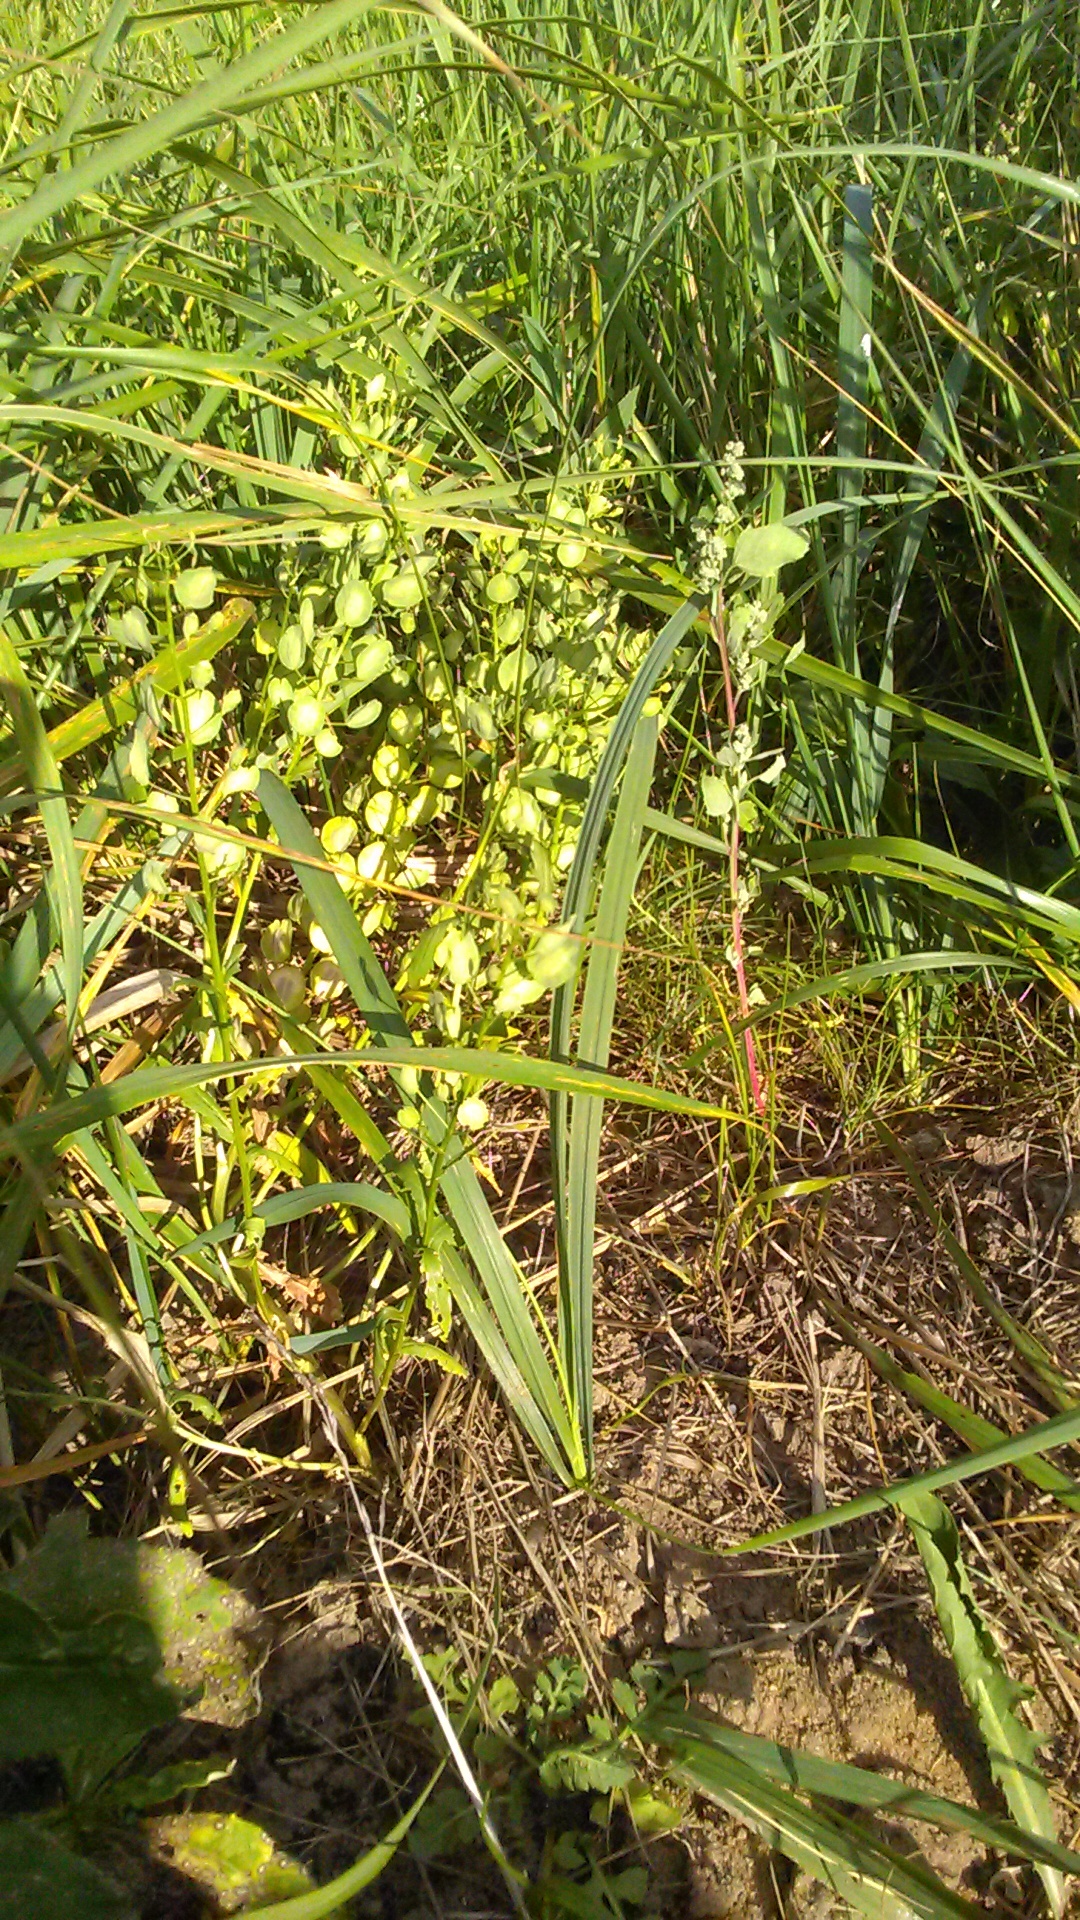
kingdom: Plantae
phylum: Tracheophyta
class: Magnoliopsida
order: Brassicales
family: Brassicaceae
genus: Thlaspi
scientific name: Thlaspi arvense
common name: Field pennycress
